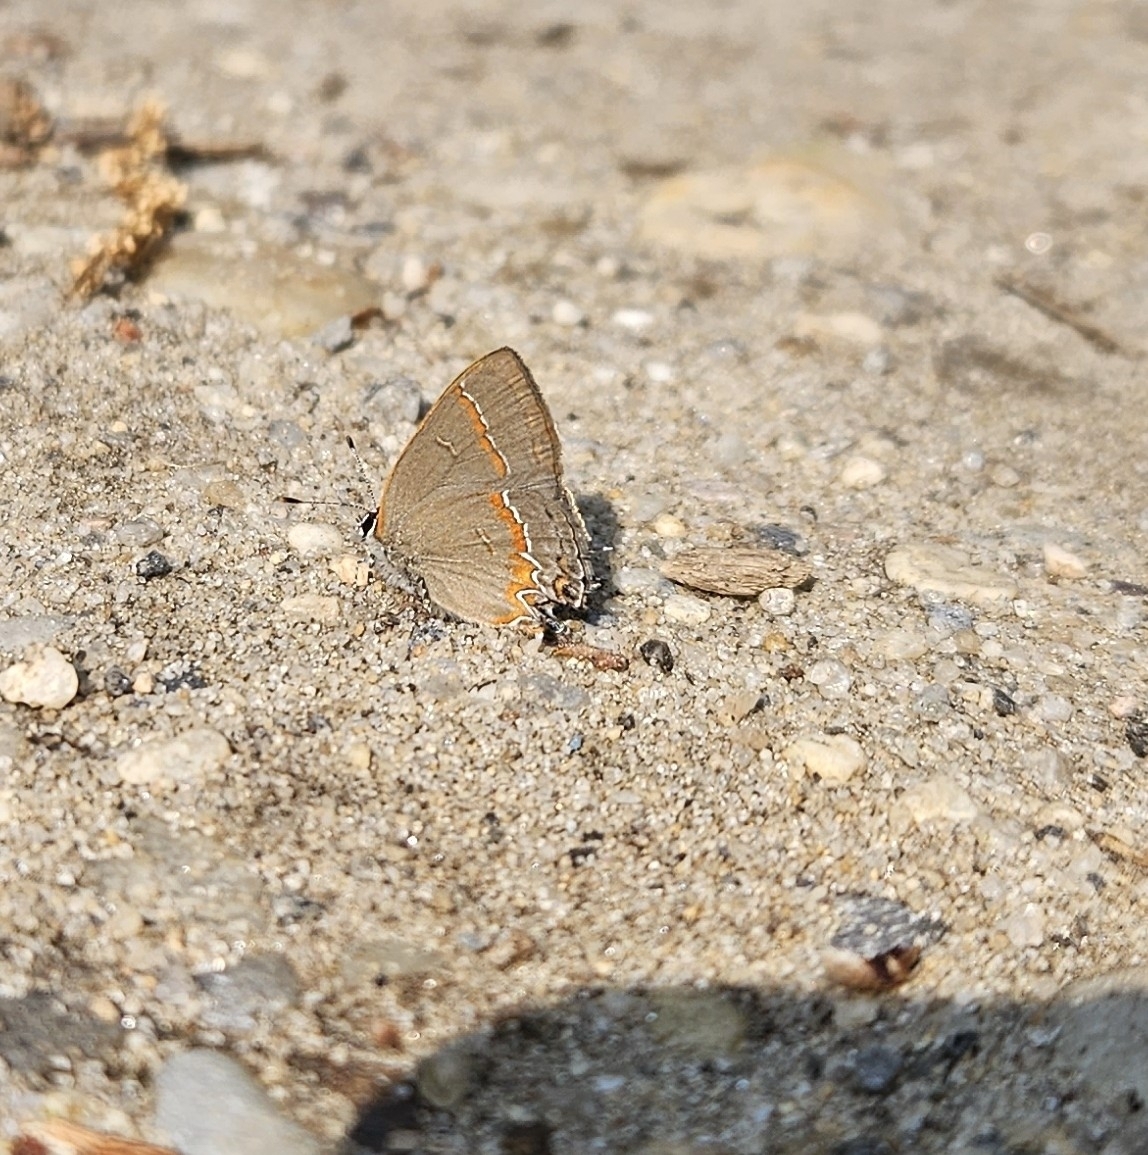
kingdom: Animalia
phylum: Arthropoda
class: Insecta
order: Lepidoptera
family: Lycaenidae
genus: Calycopis
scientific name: Calycopis cecrops
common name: Red-banded hairstreak
